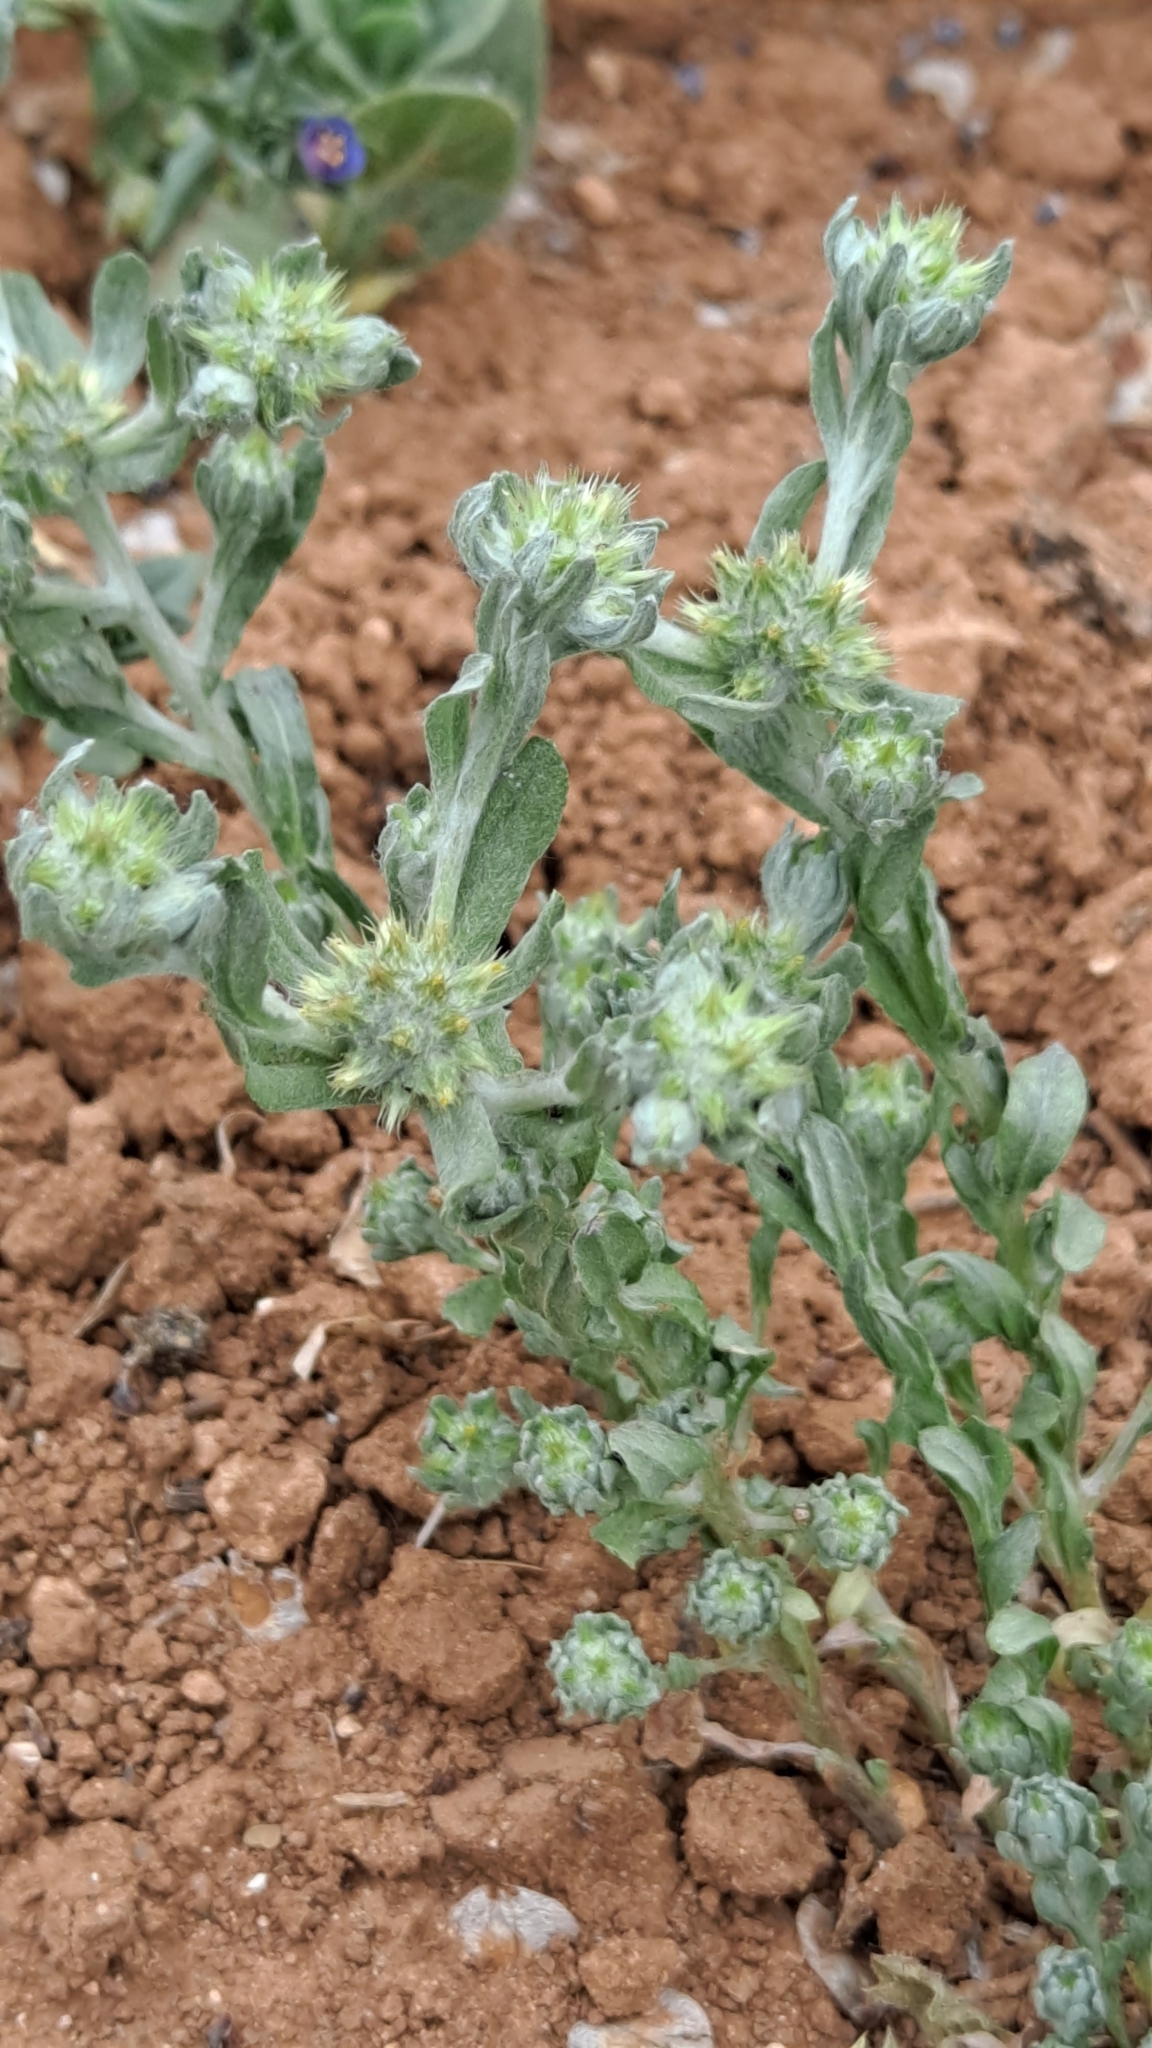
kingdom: Plantae
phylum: Tracheophyta
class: Magnoliopsida
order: Asterales
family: Asteraceae
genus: Filago
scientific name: Filago pyramidata
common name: Broad-leaved cudweed
